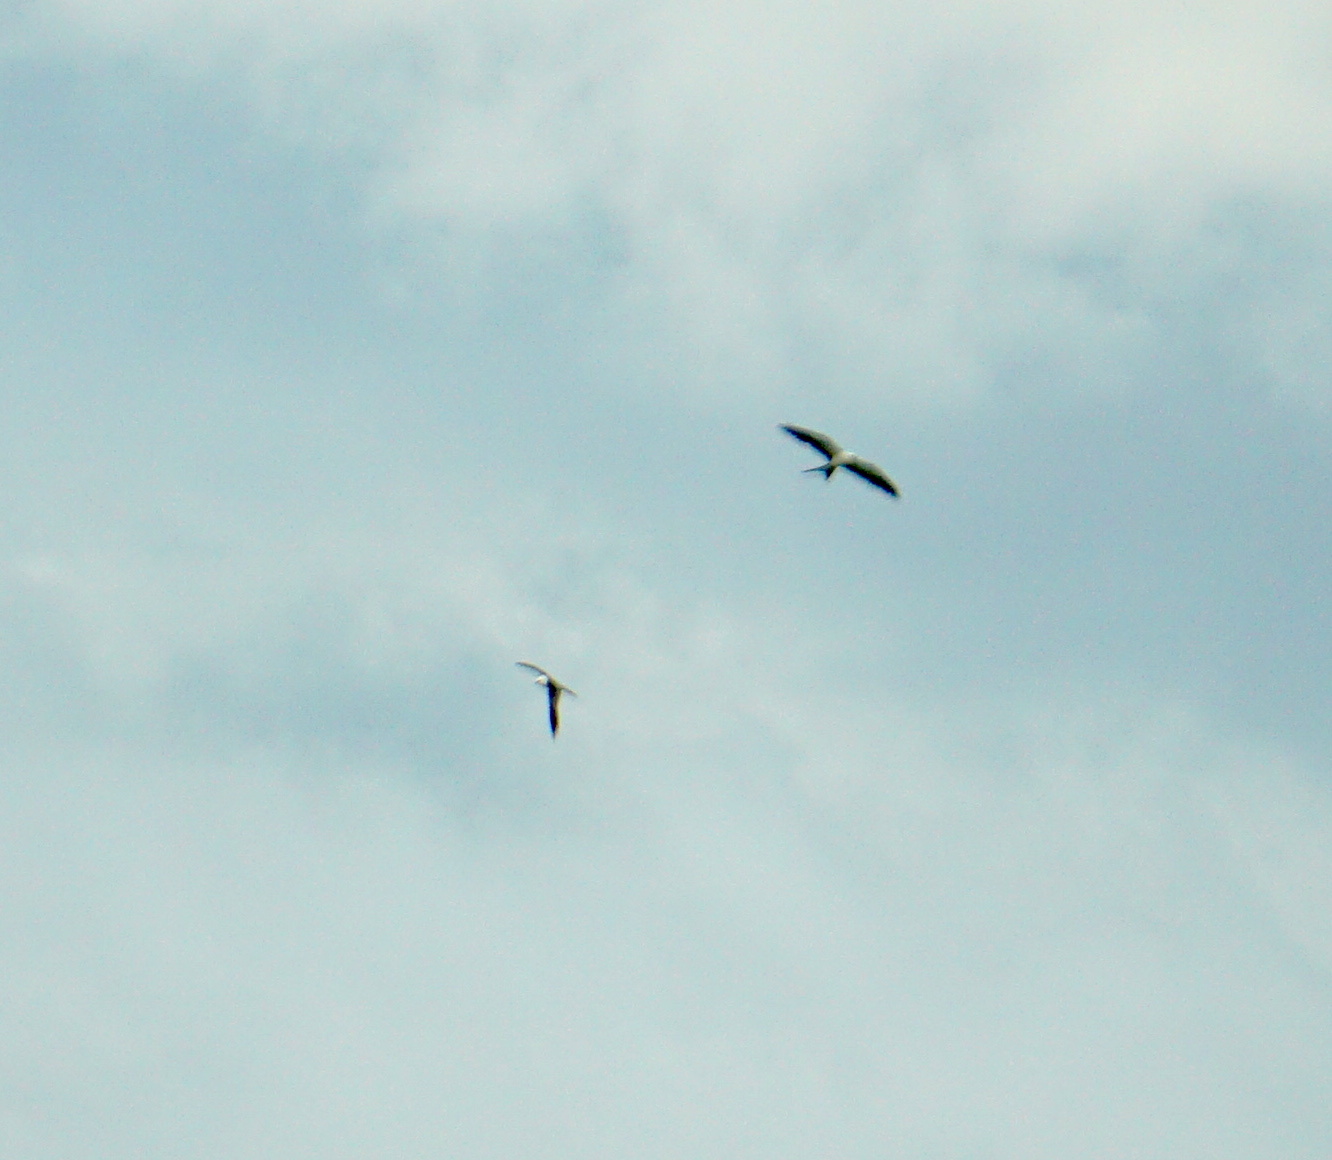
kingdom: Animalia
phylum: Chordata
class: Aves
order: Accipitriformes
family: Accipitridae
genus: Elanoides
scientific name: Elanoides forficatus
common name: Swallow-tailed kite
